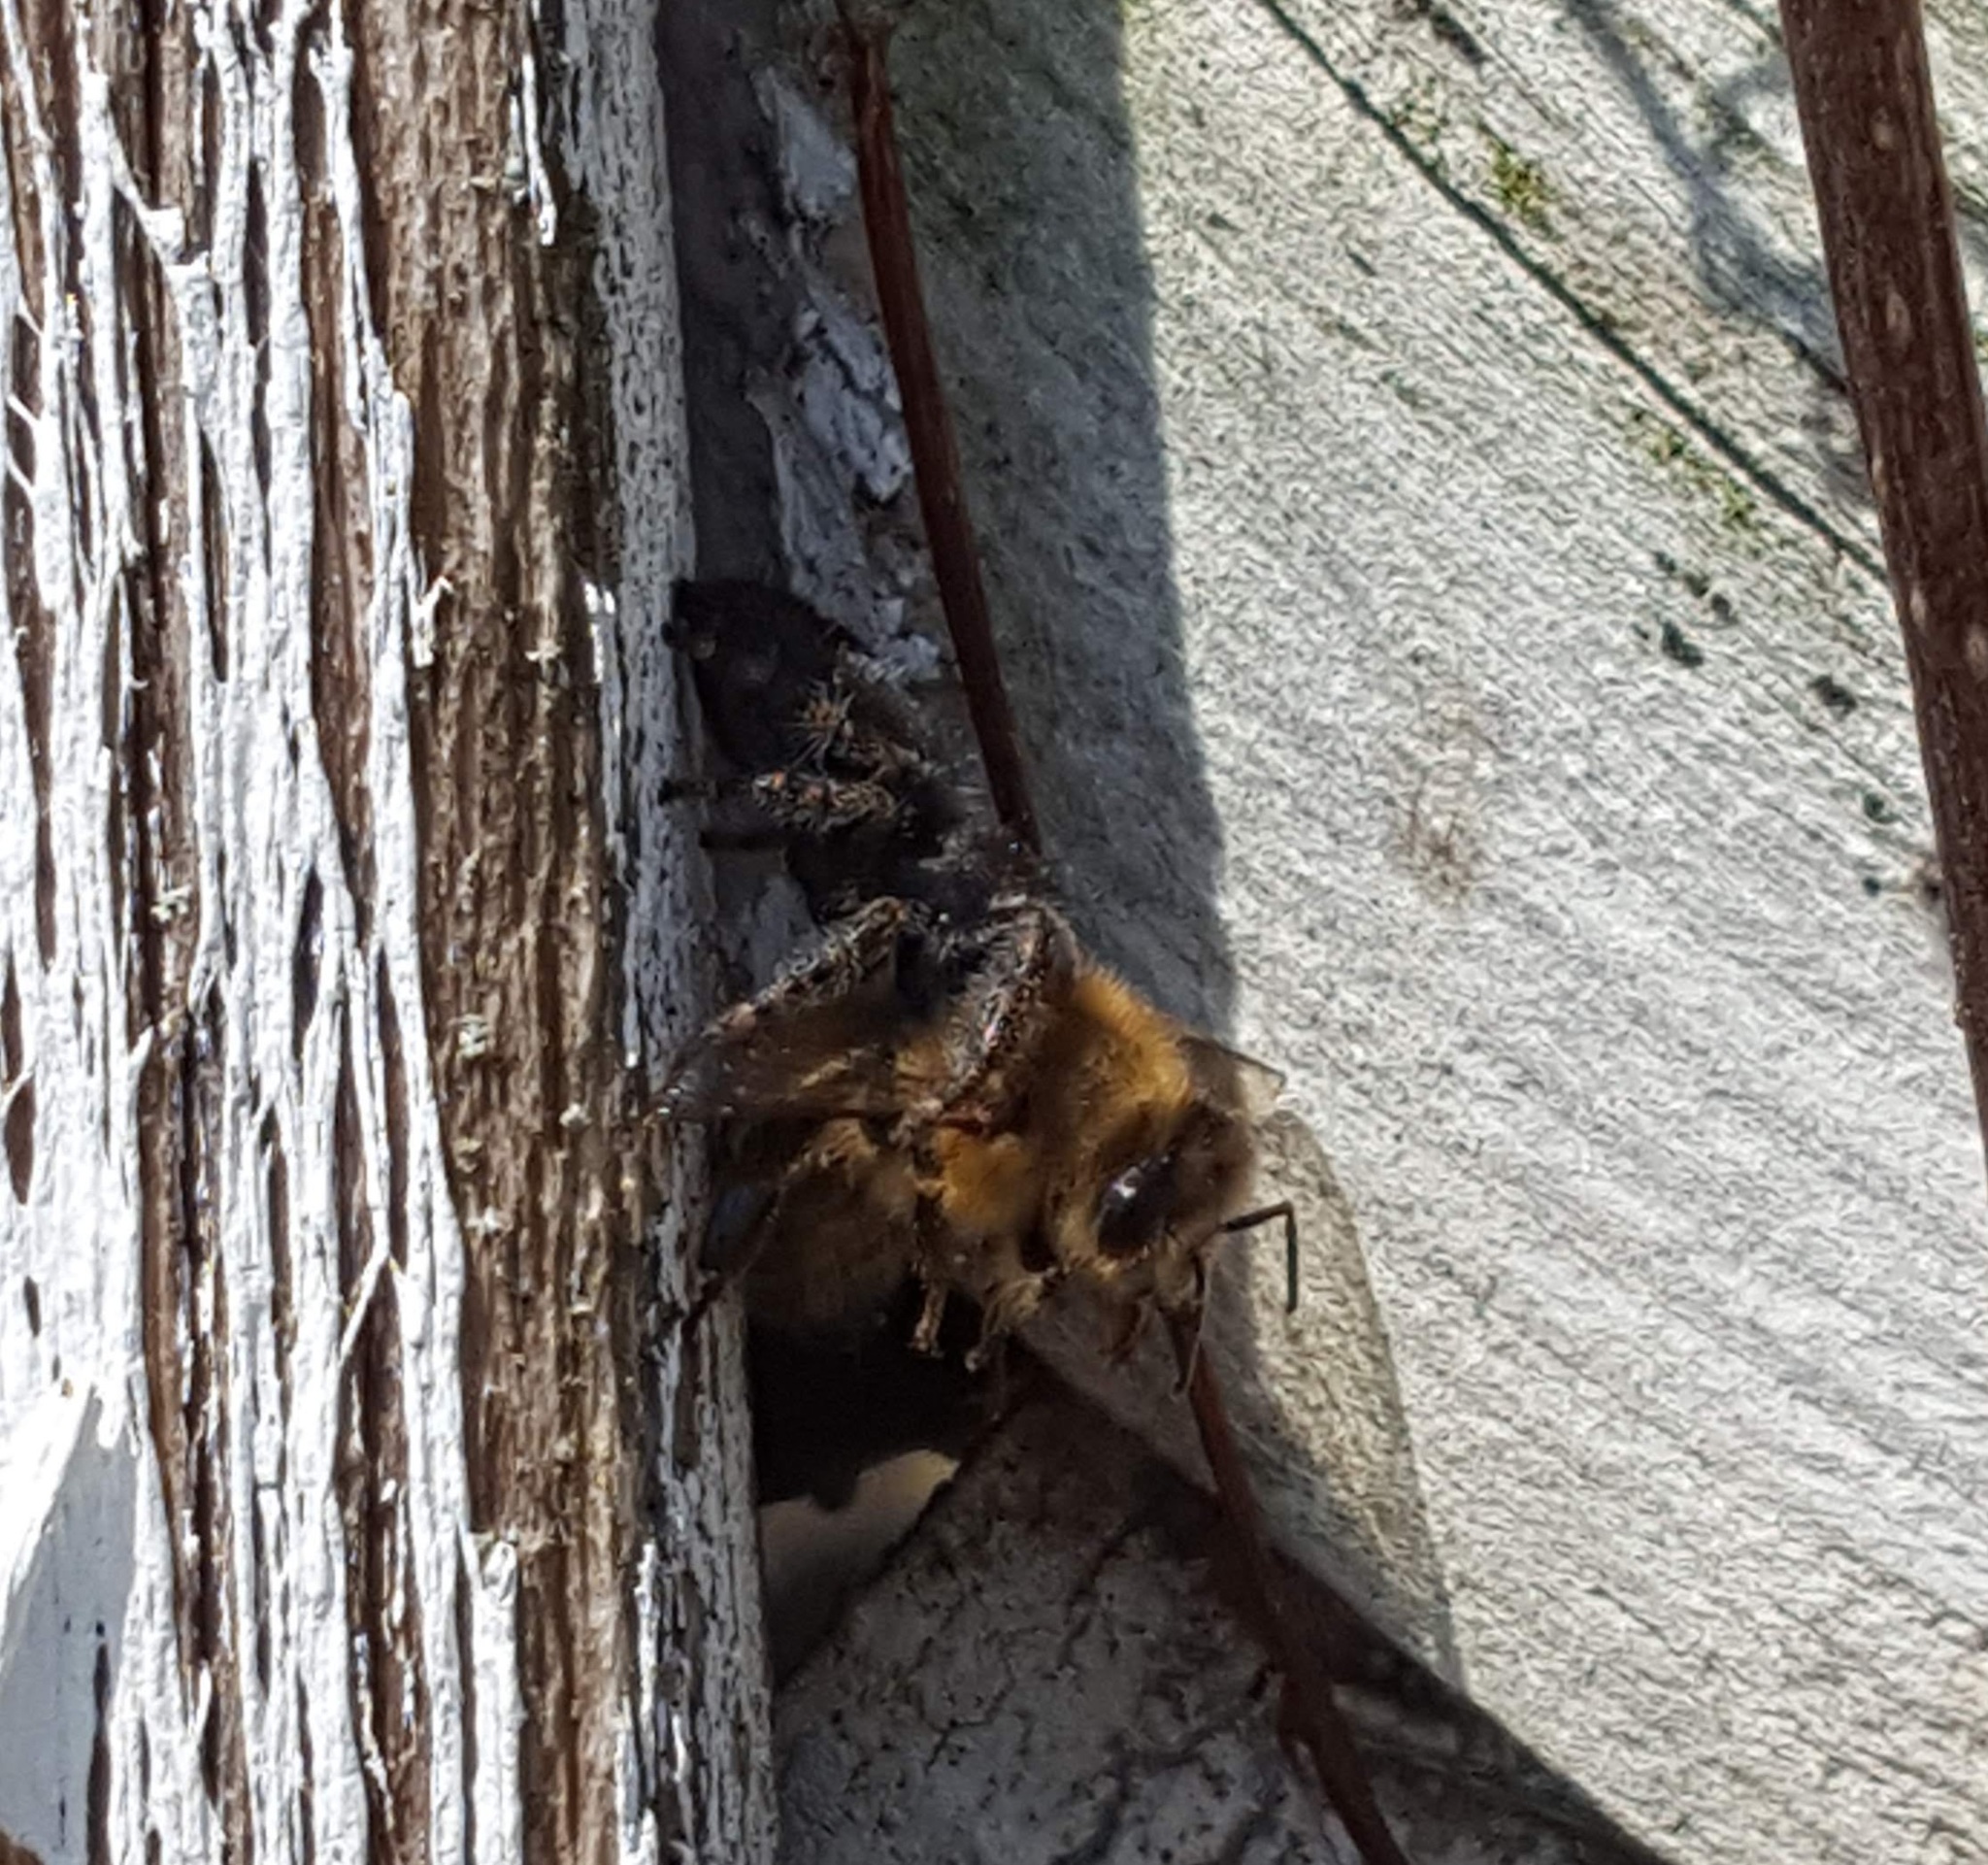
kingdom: Animalia
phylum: Arthropoda
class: Arachnida
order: Araneae
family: Salticidae
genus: Phidippus
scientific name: Phidippus audax
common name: Bold jumper
